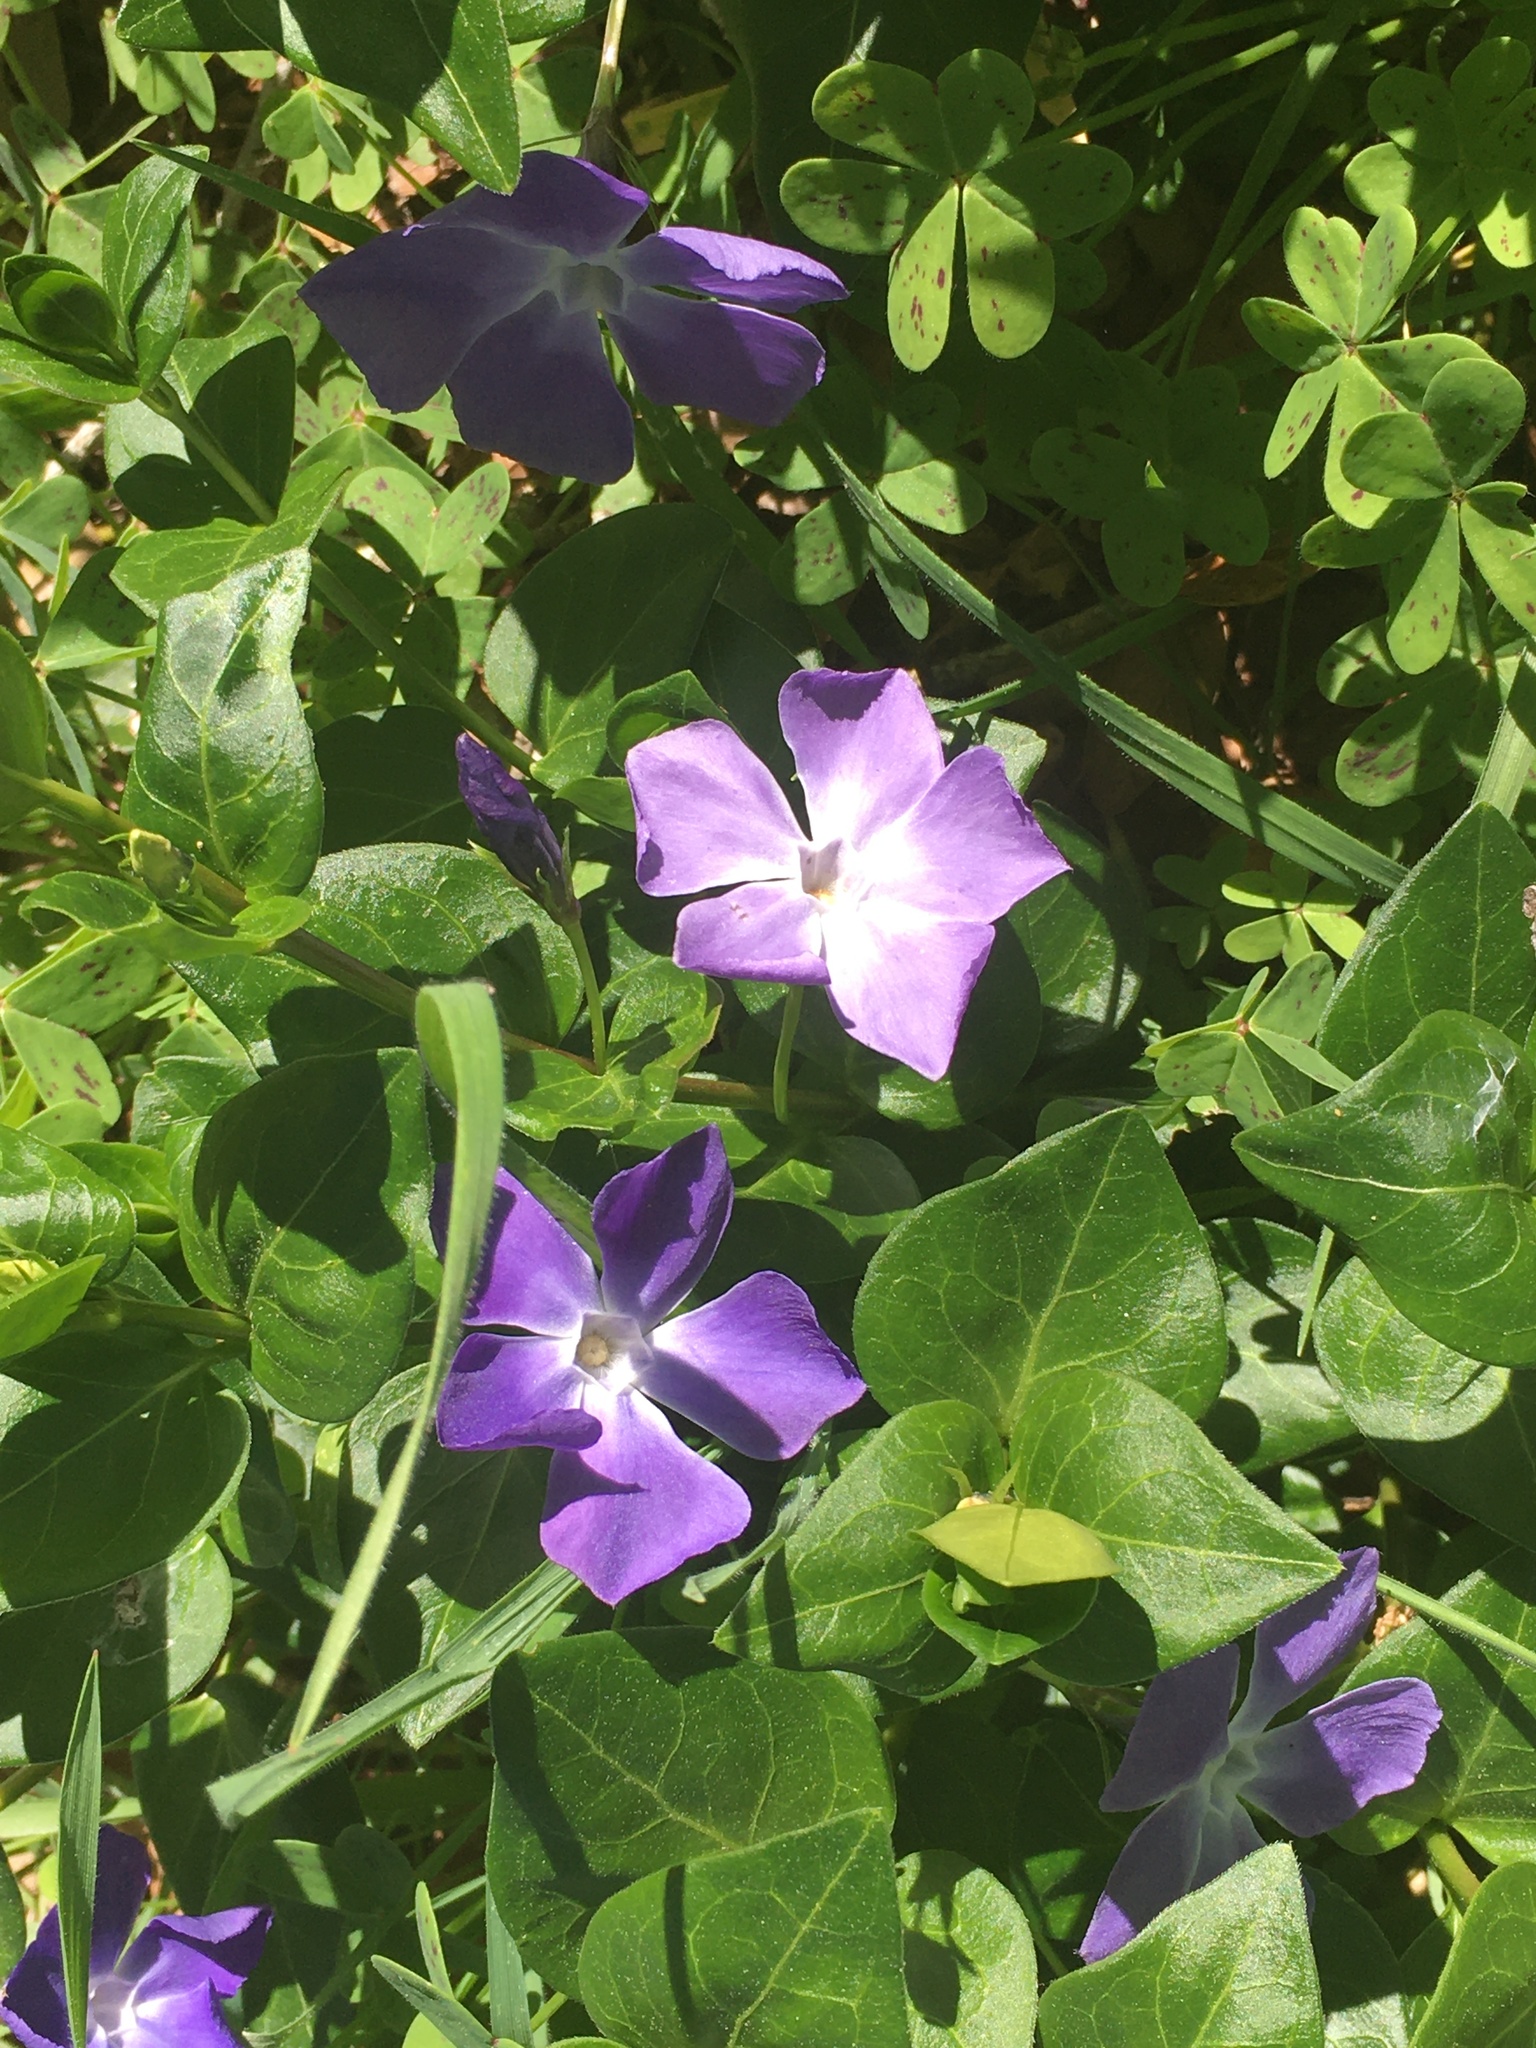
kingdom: Plantae
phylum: Tracheophyta
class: Magnoliopsida
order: Gentianales
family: Apocynaceae
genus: Vinca
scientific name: Vinca major
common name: Greater periwinkle
